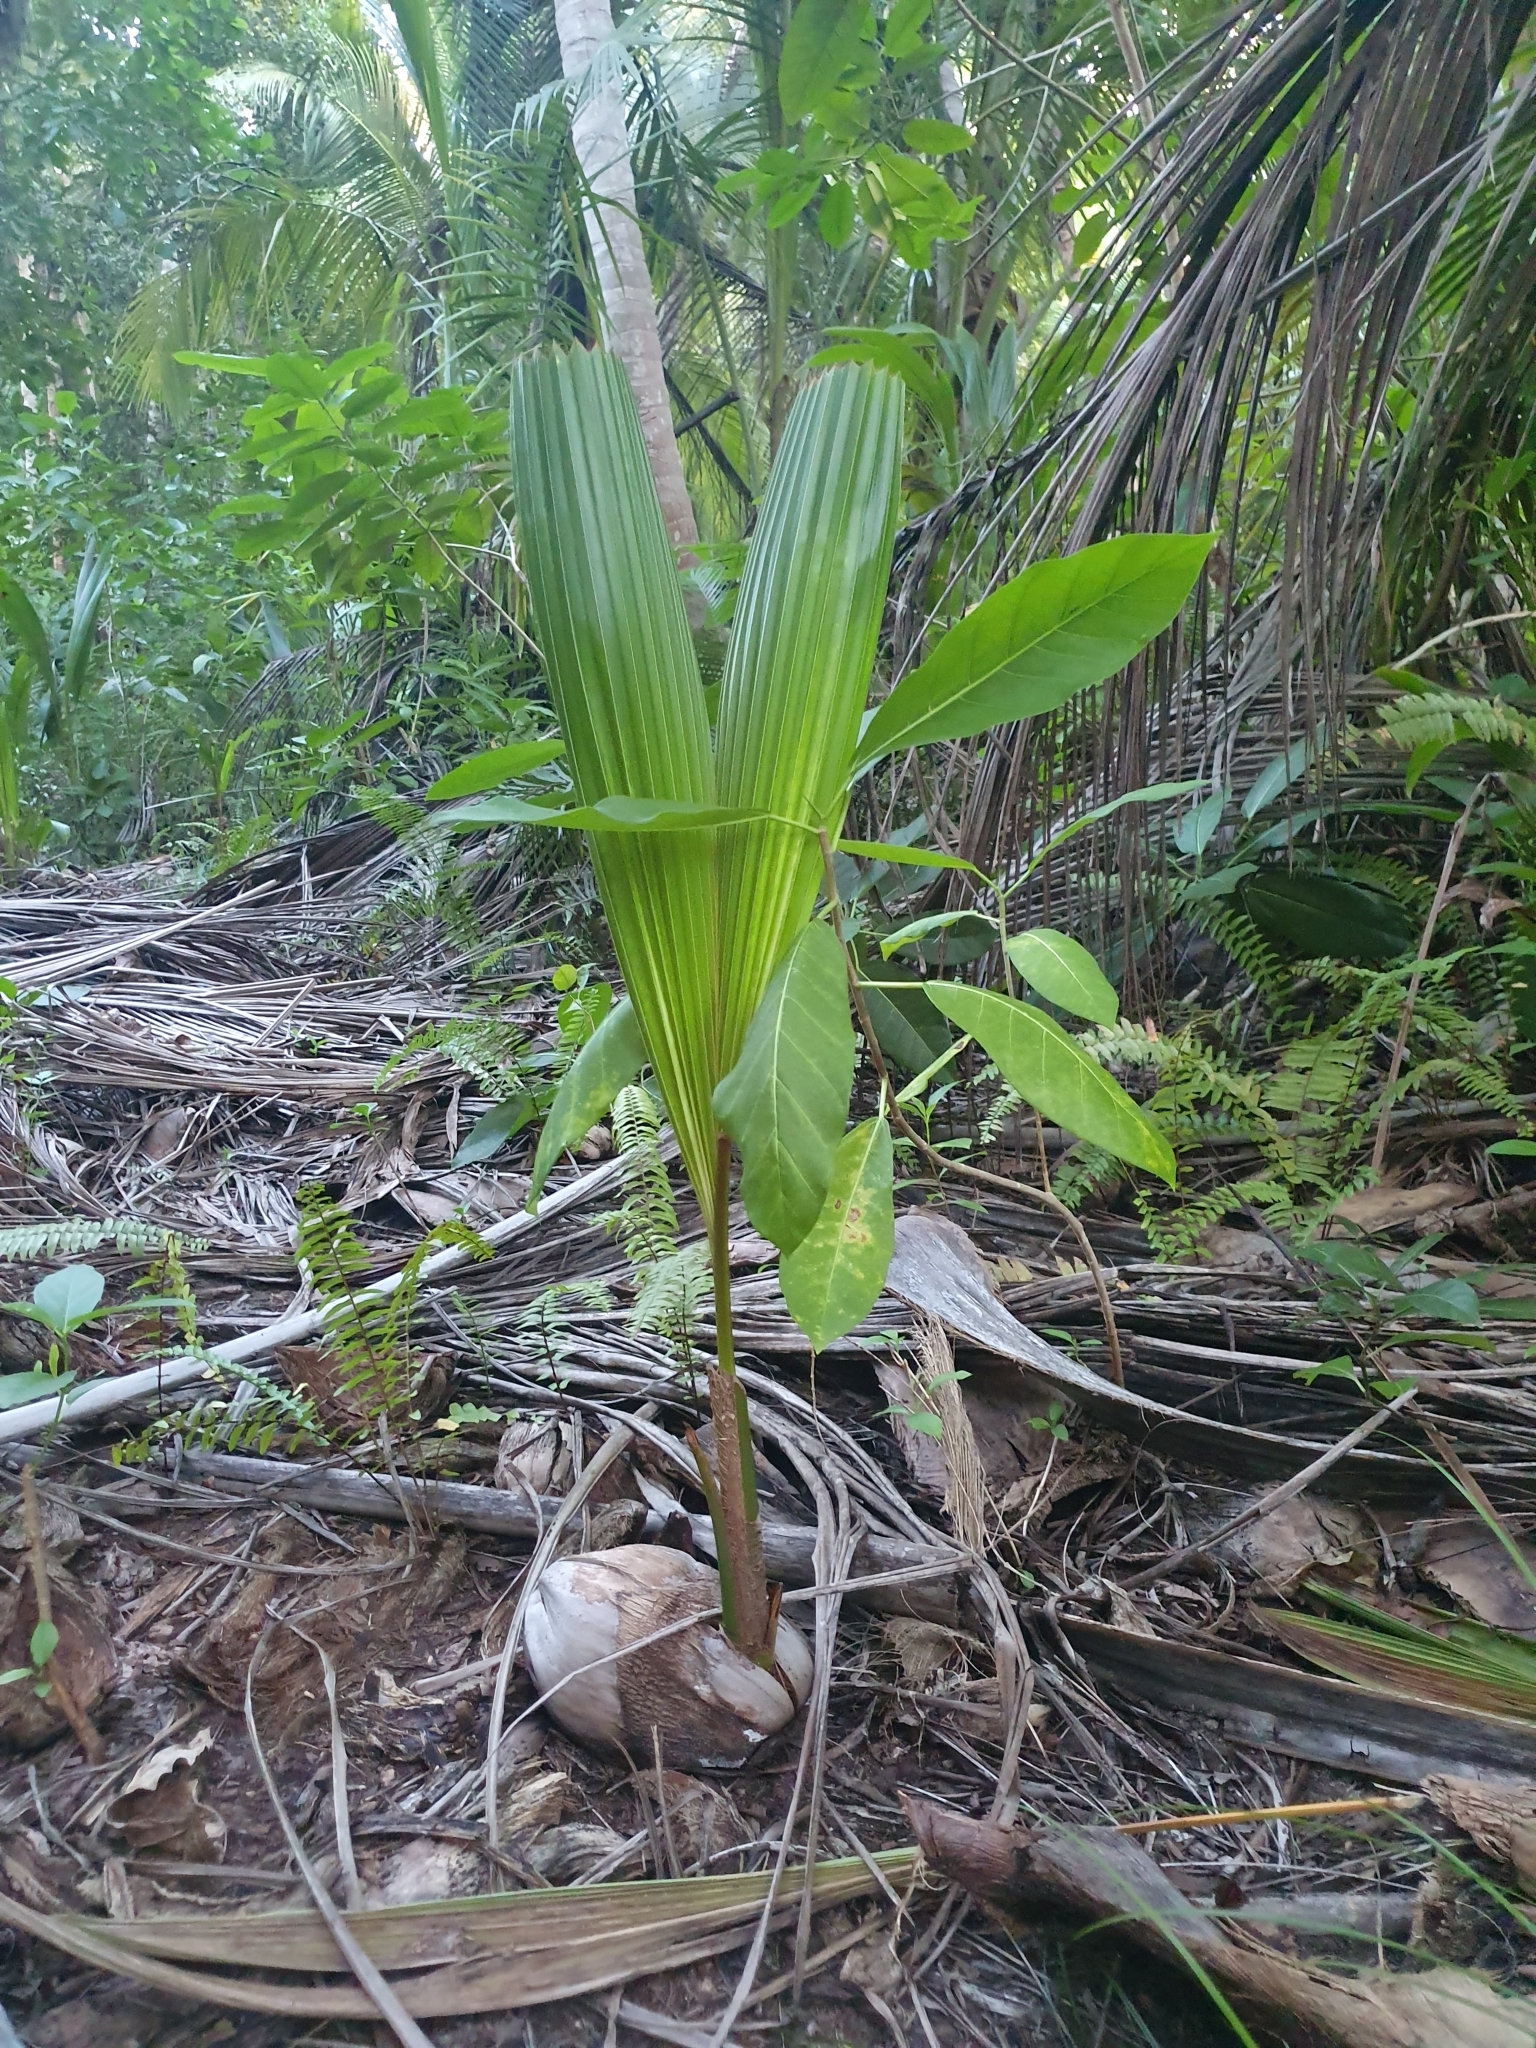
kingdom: Plantae
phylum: Tracheophyta
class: Liliopsida
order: Arecales
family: Arecaceae
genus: Cocos
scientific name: Cocos nucifera
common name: Coconut palm
